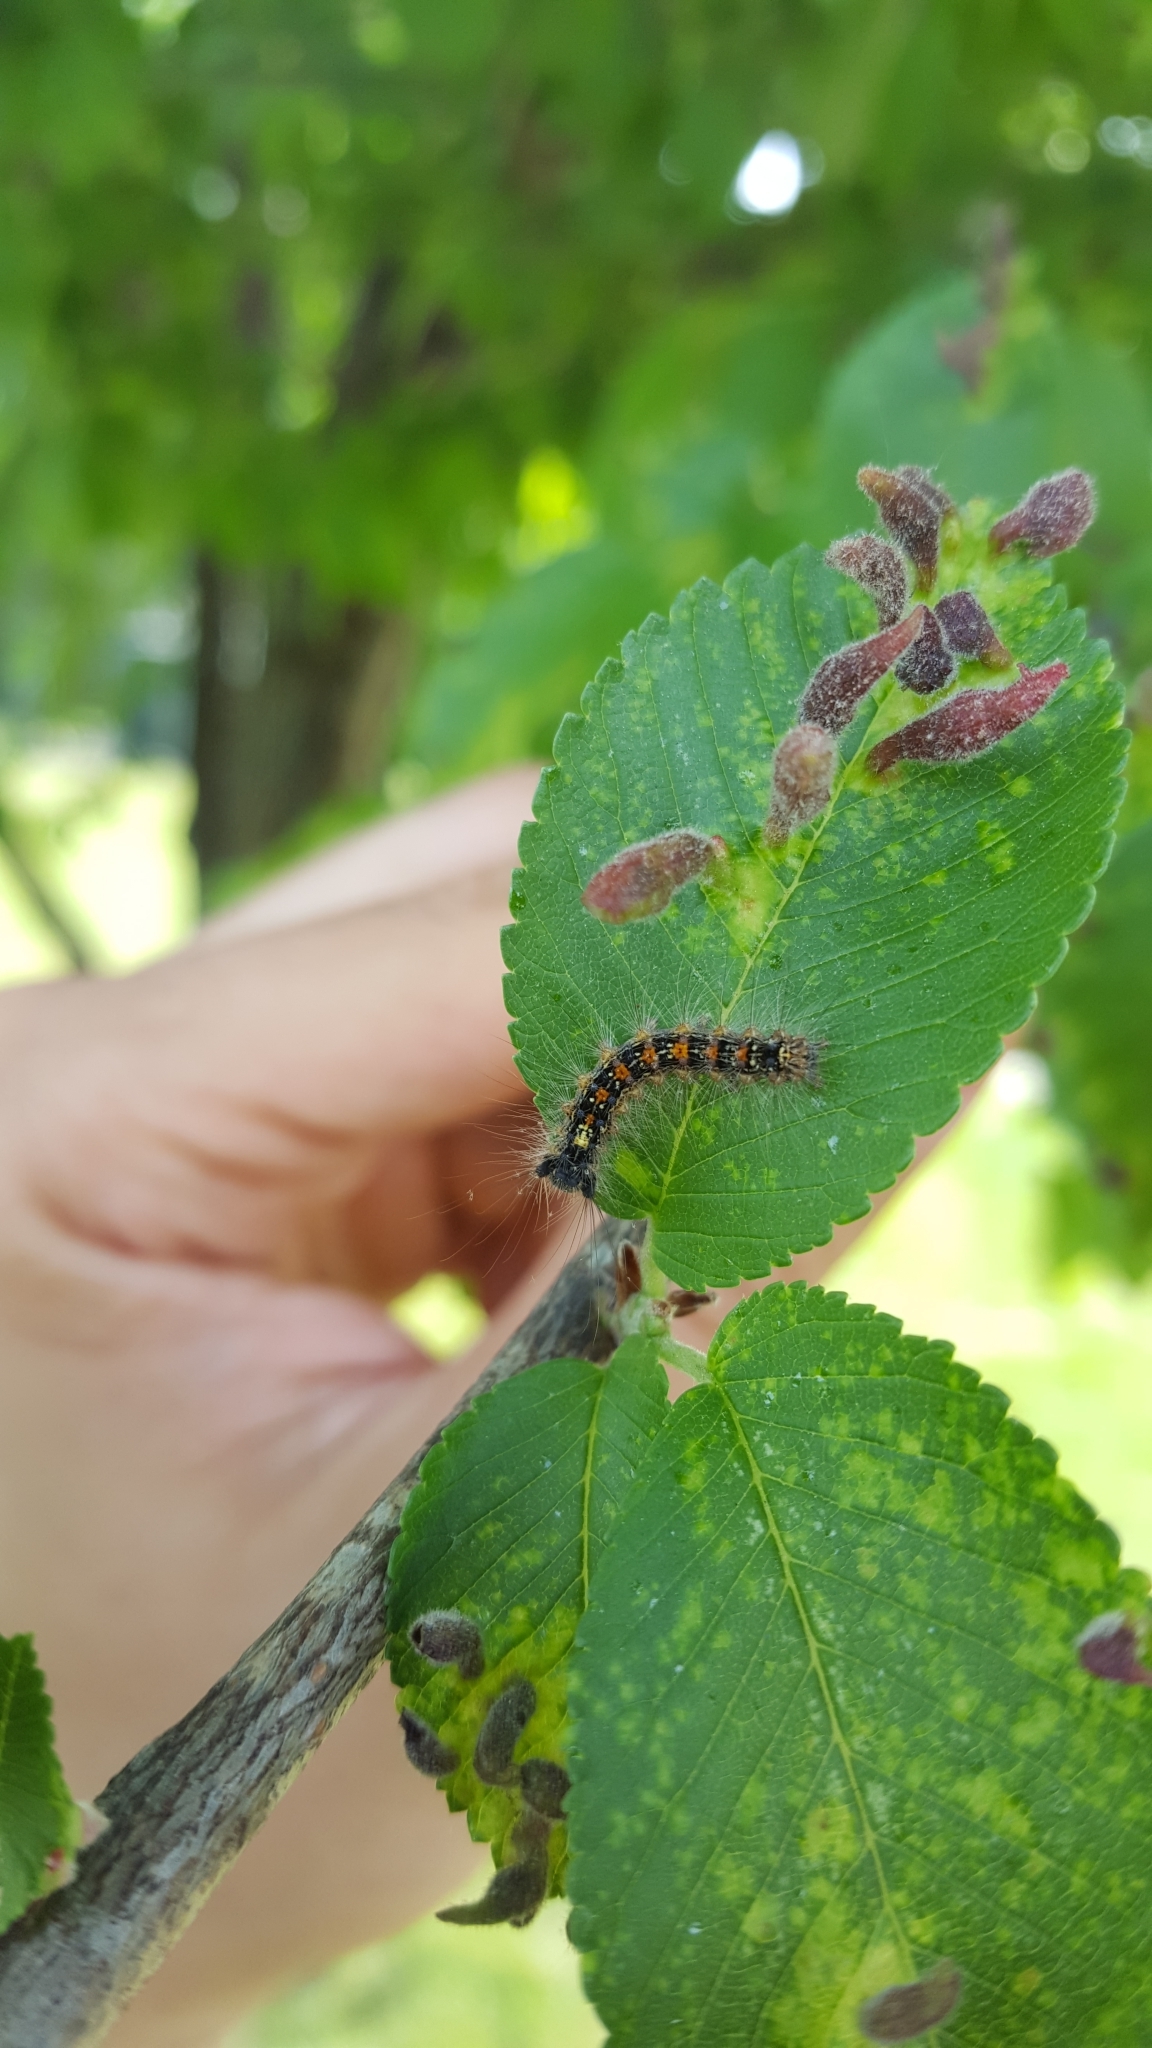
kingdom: Animalia
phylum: Arthropoda
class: Insecta
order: Lepidoptera
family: Erebidae
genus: Lymantria
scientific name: Lymantria dispar
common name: Gypsy moth
